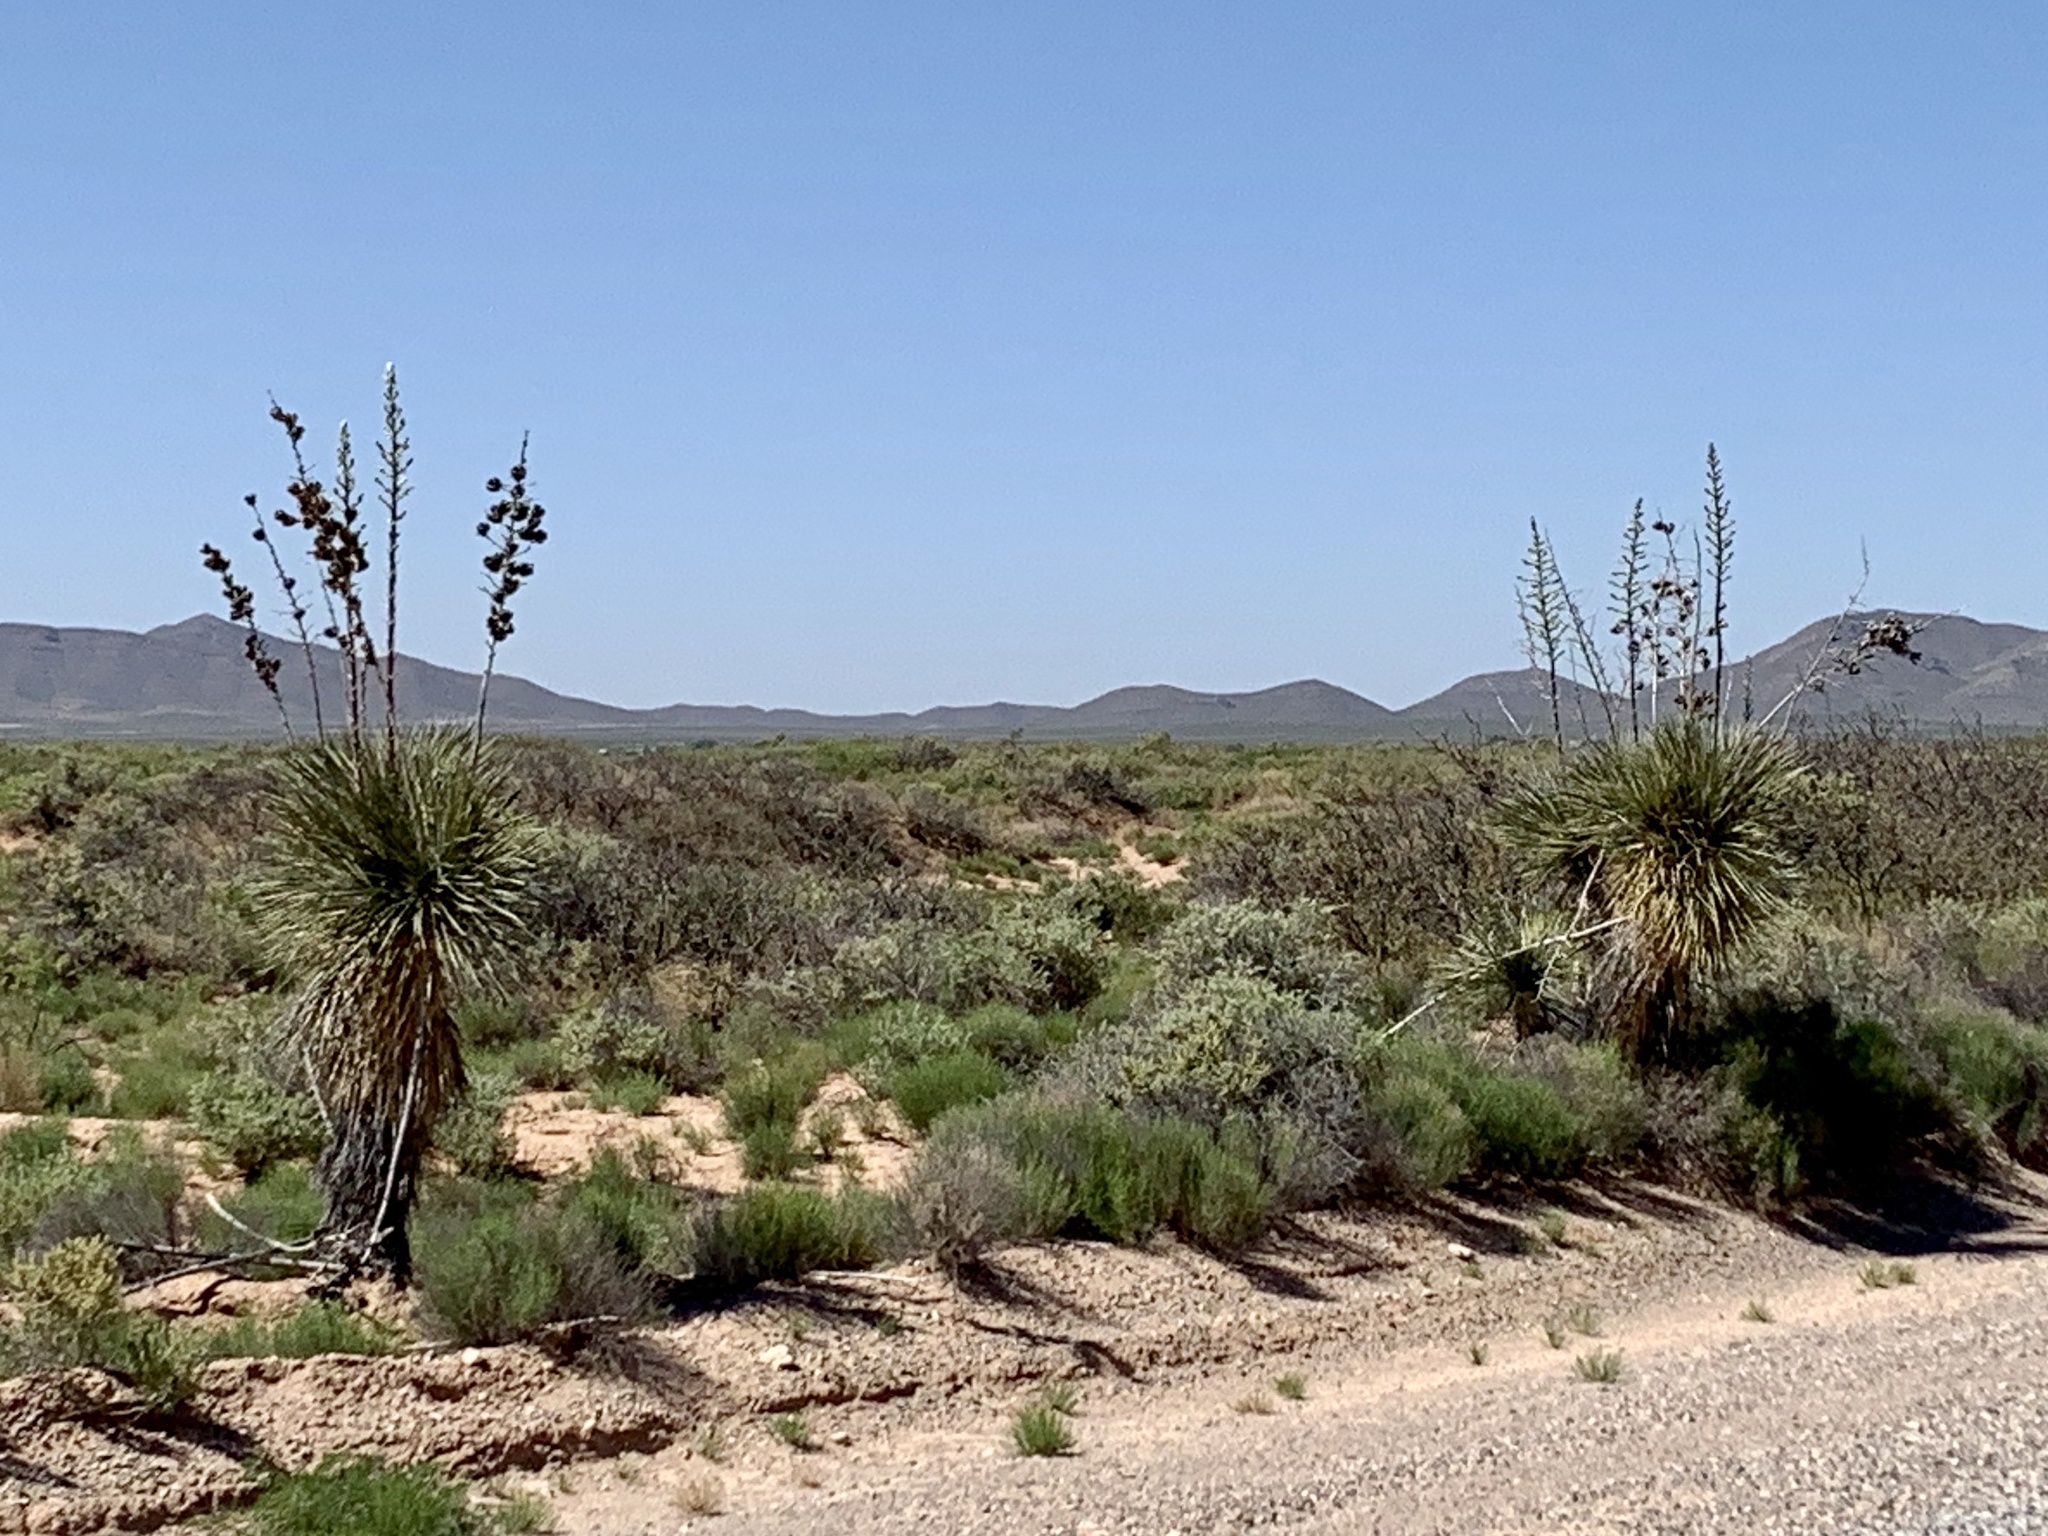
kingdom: Plantae
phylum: Tracheophyta
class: Liliopsida
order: Asparagales
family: Asparagaceae
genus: Yucca
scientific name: Yucca elata
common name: Palmella
